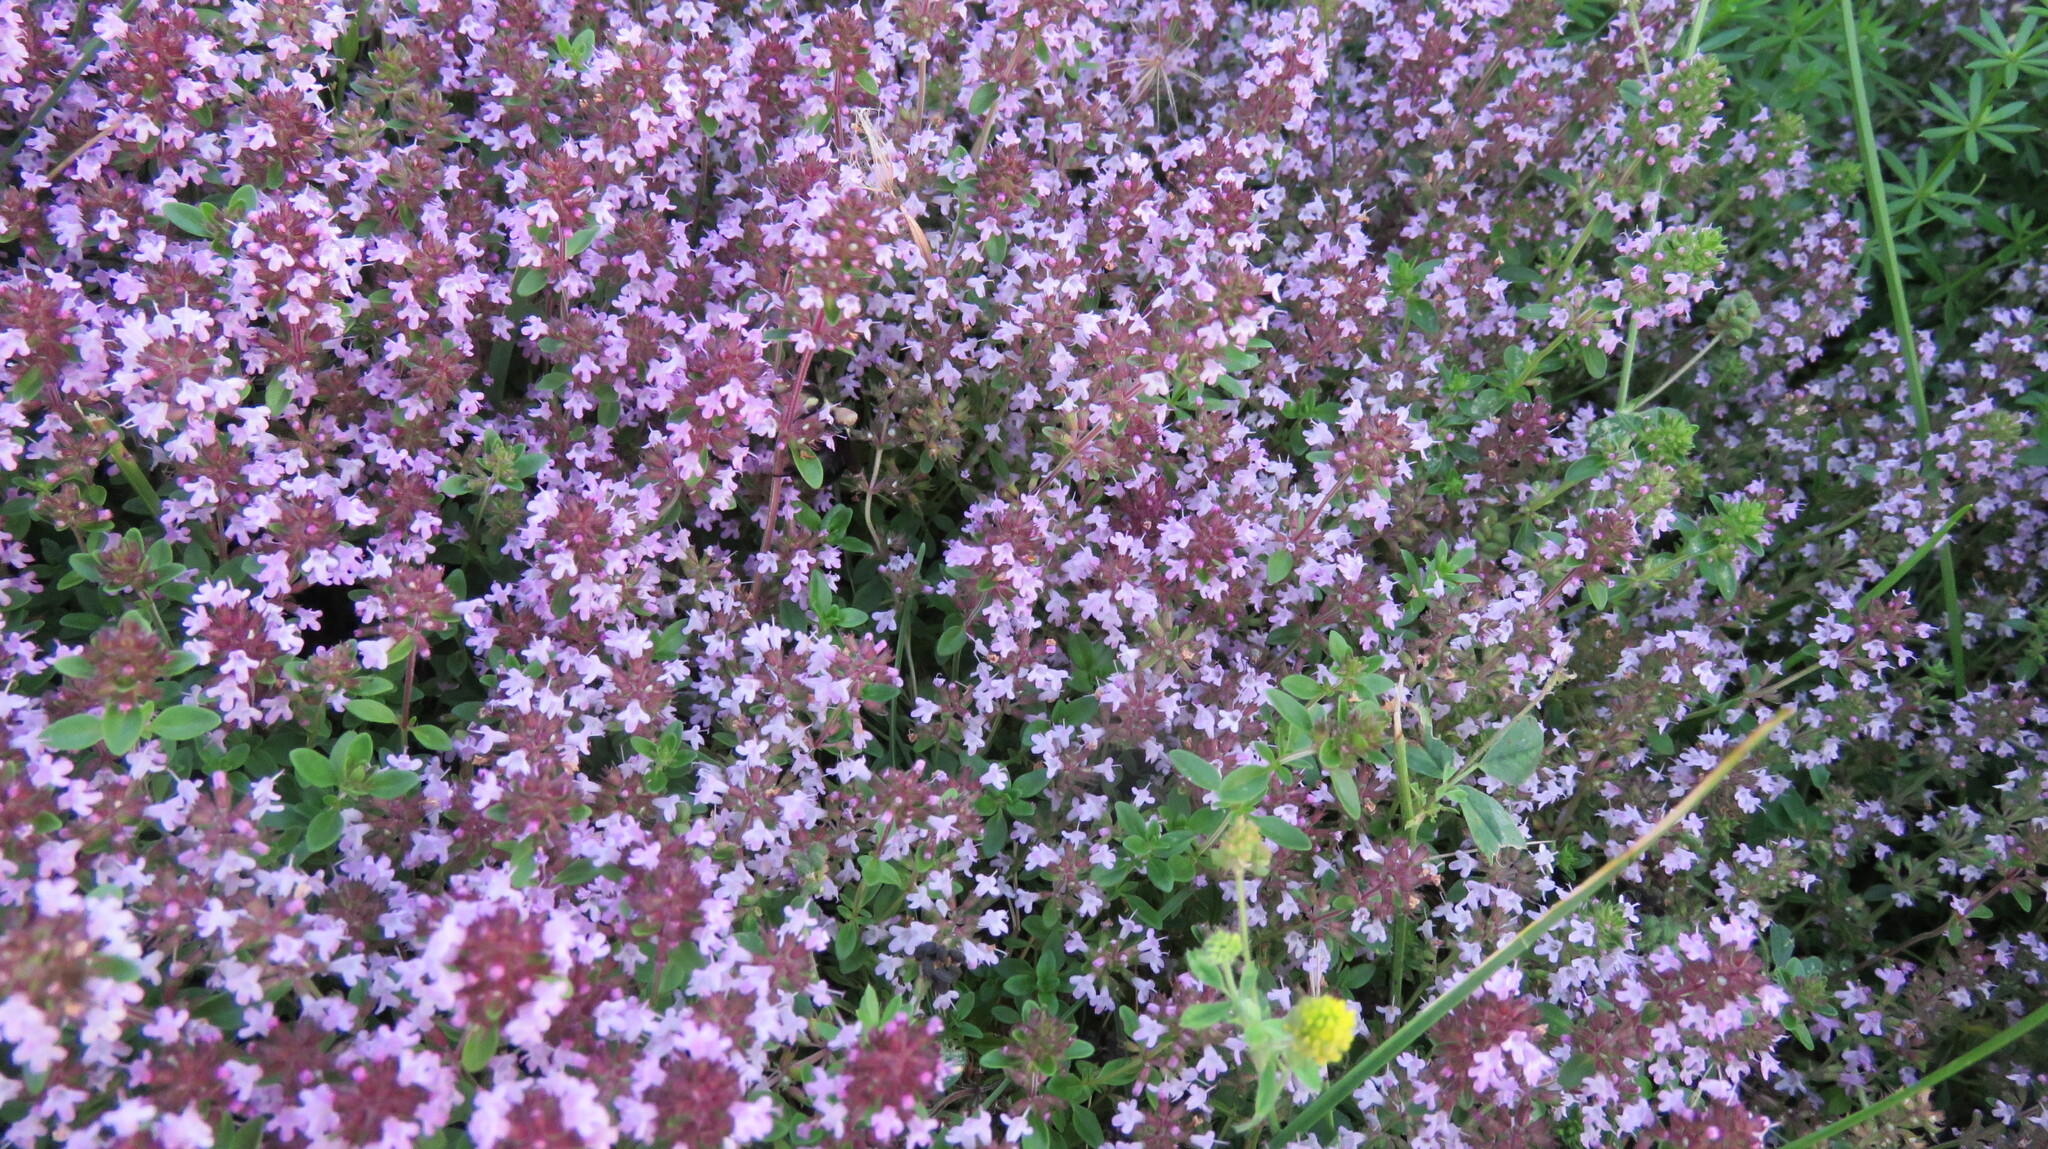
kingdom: Plantae
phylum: Tracheophyta
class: Magnoliopsida
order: Lamiales
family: Lamiaceae
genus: Thymus
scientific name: Thymus pulegioides
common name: Large thyme
